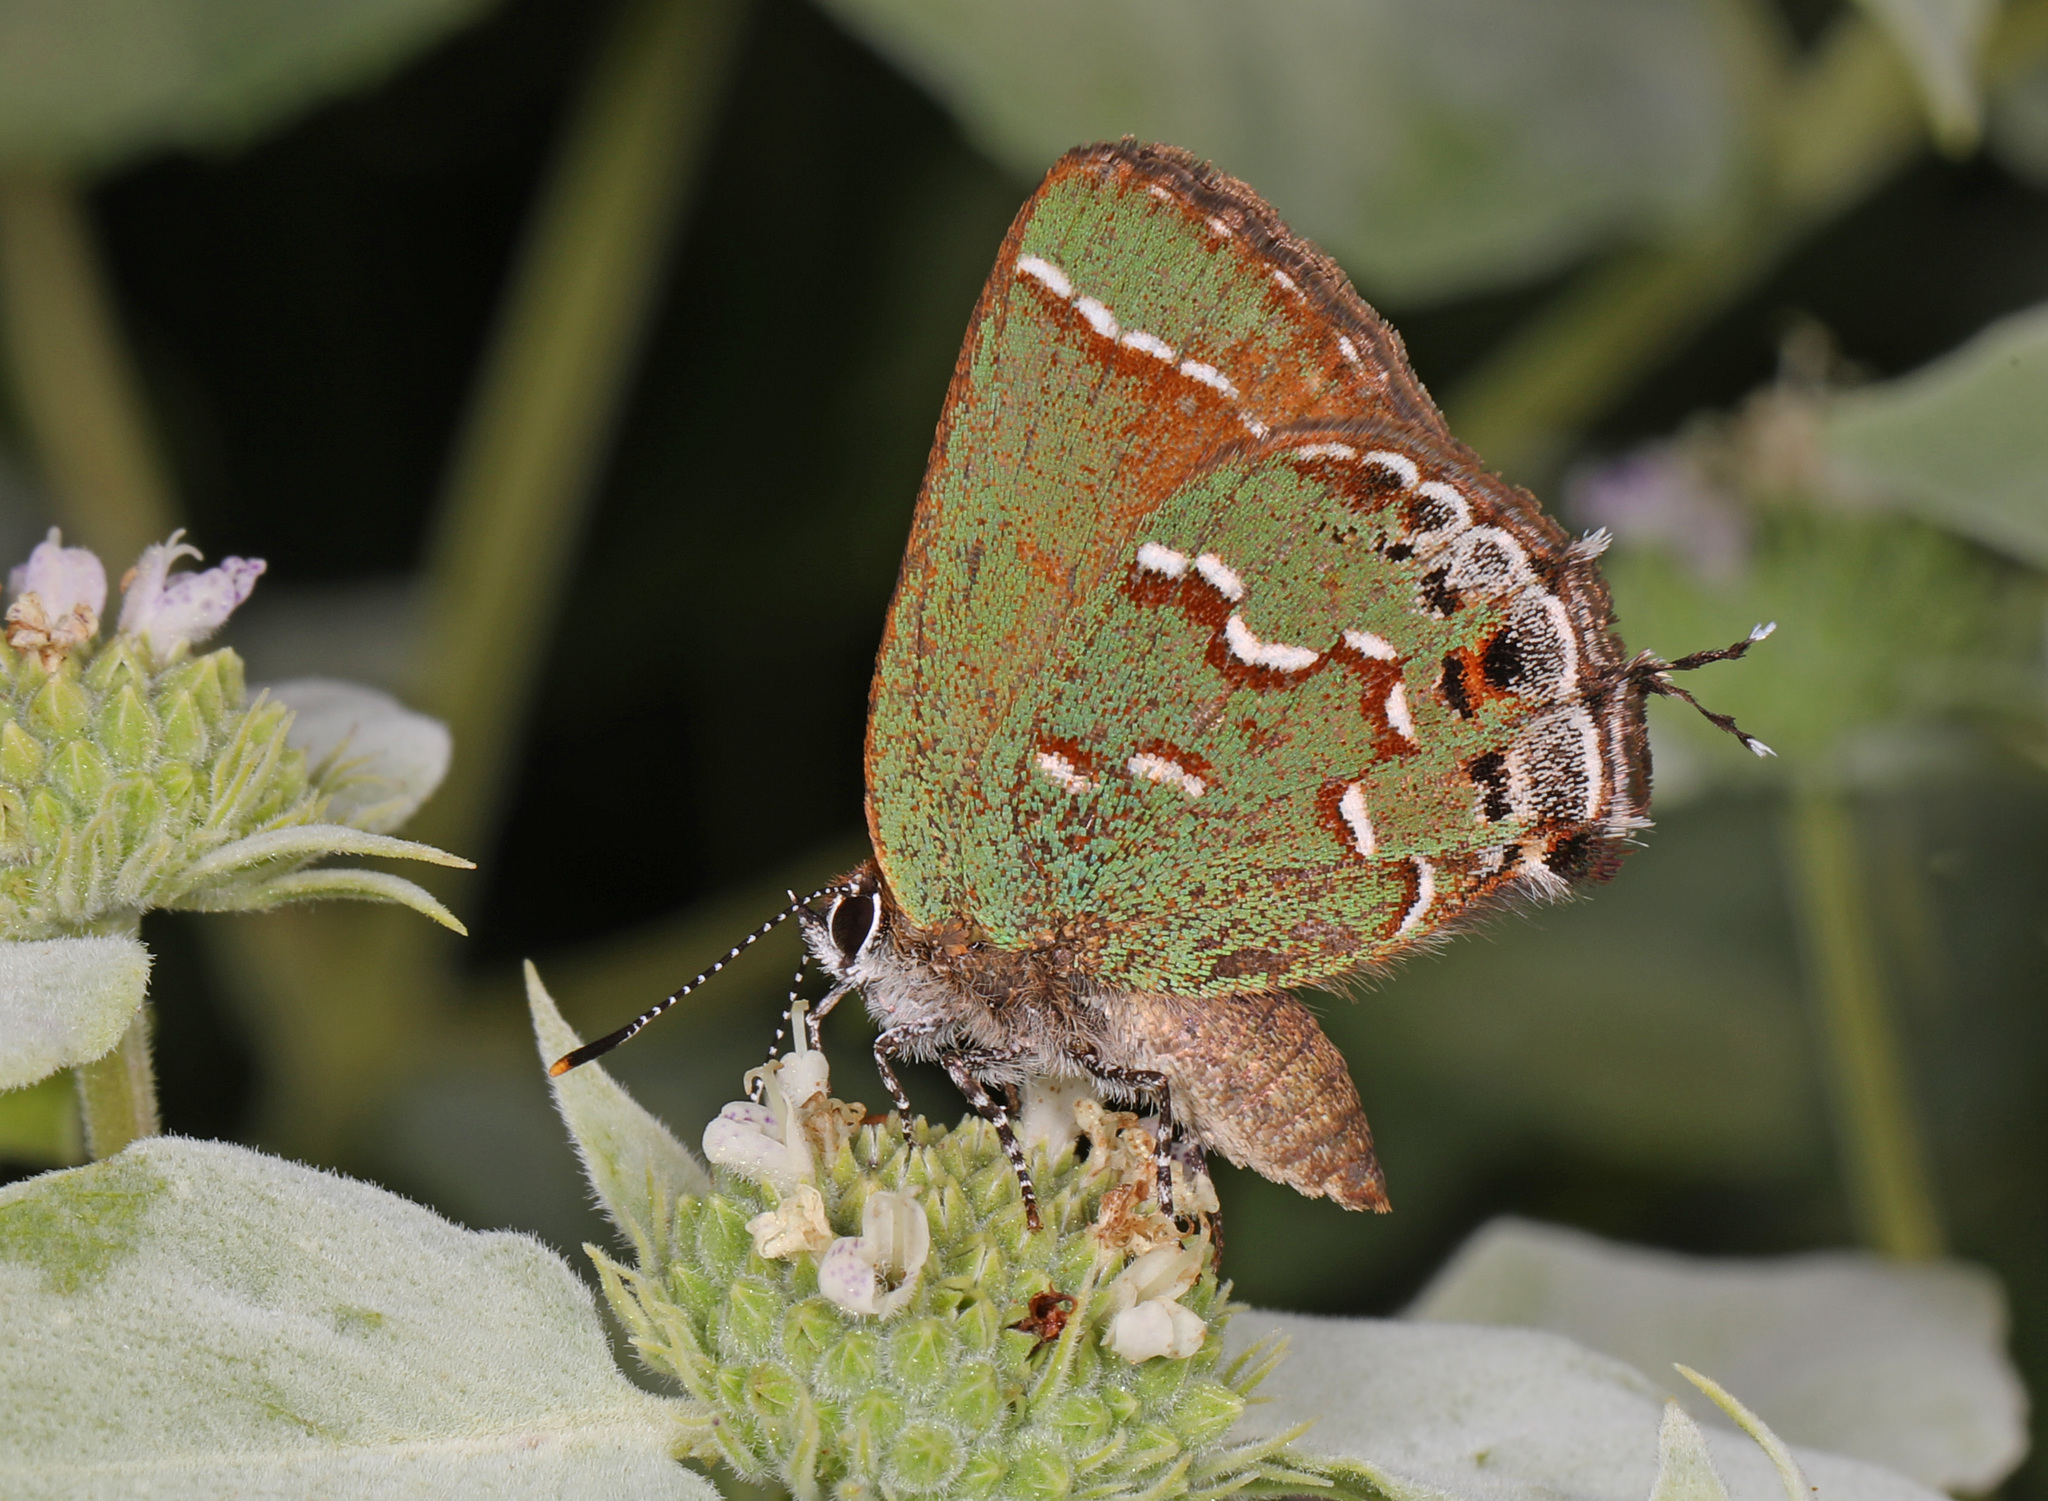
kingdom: Animalia
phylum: Arthropoda
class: Insecta
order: Lepidoptera
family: Lycaenidae
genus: Mitoura
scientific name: Mitoura gryneus
